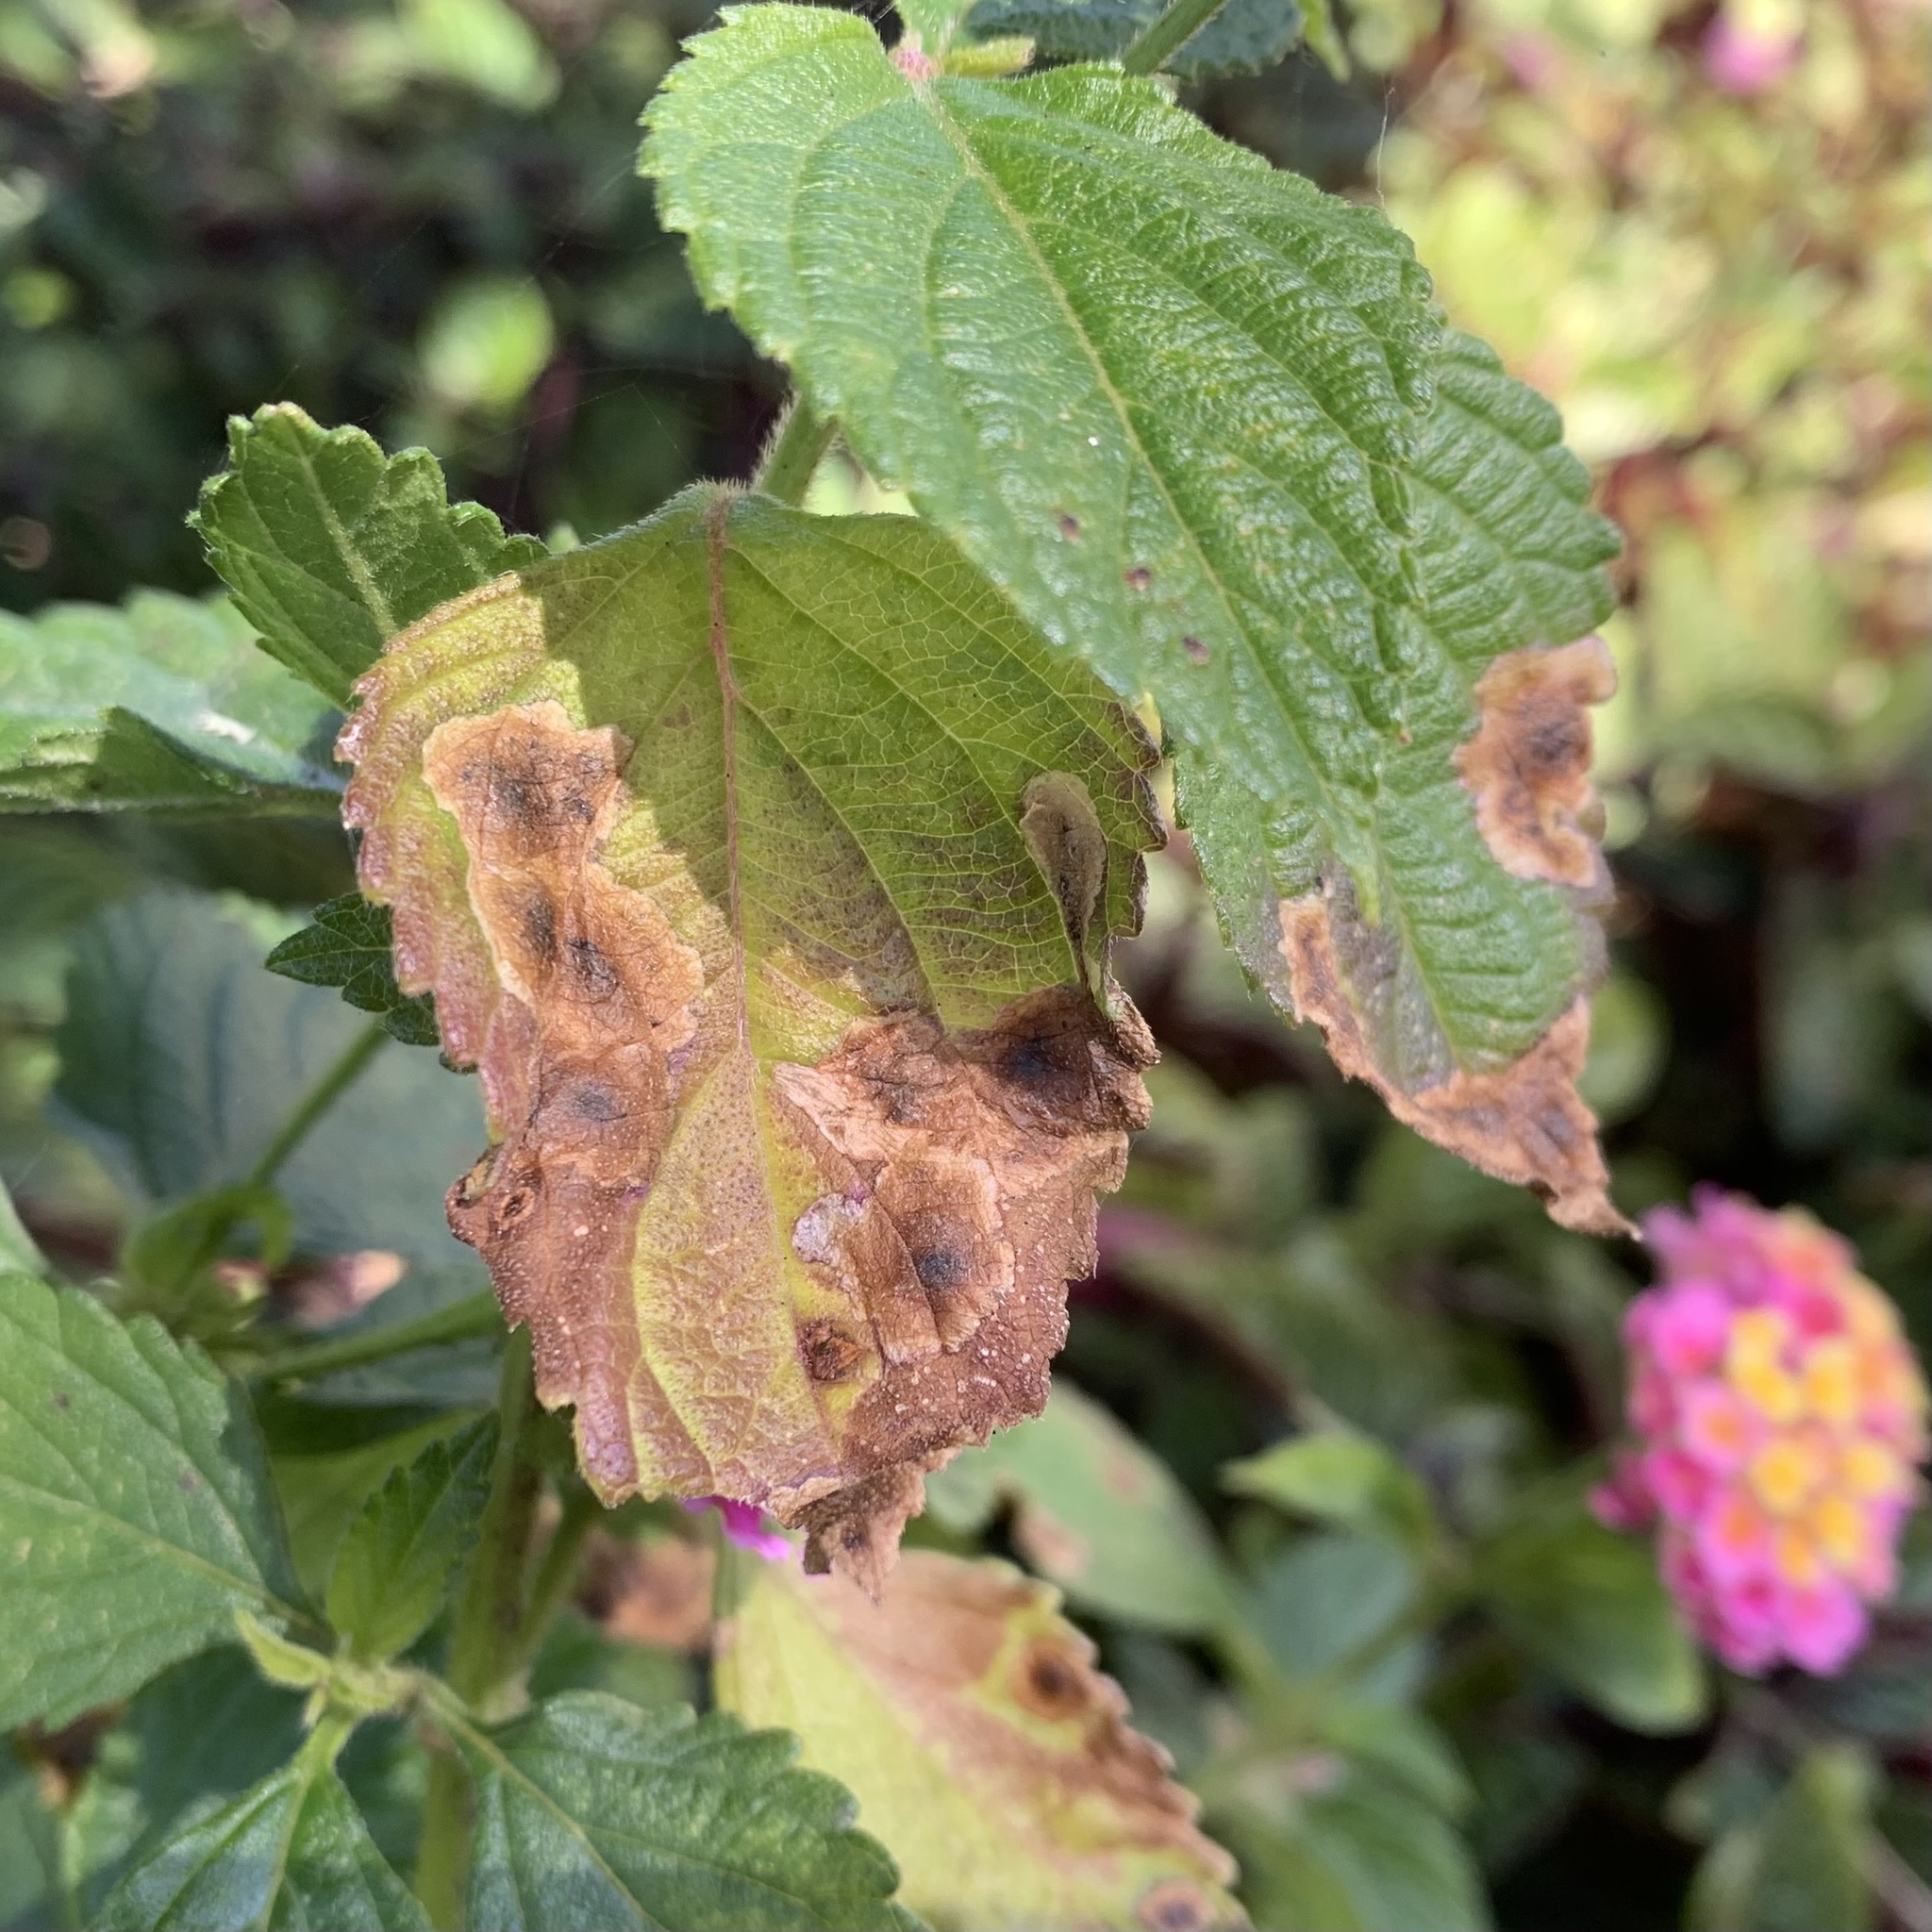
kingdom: Animalia
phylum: Arthropoda
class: Insecta
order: Diptera
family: Agromyzidae
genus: Calycomyza
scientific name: Calycomyza lantanae
